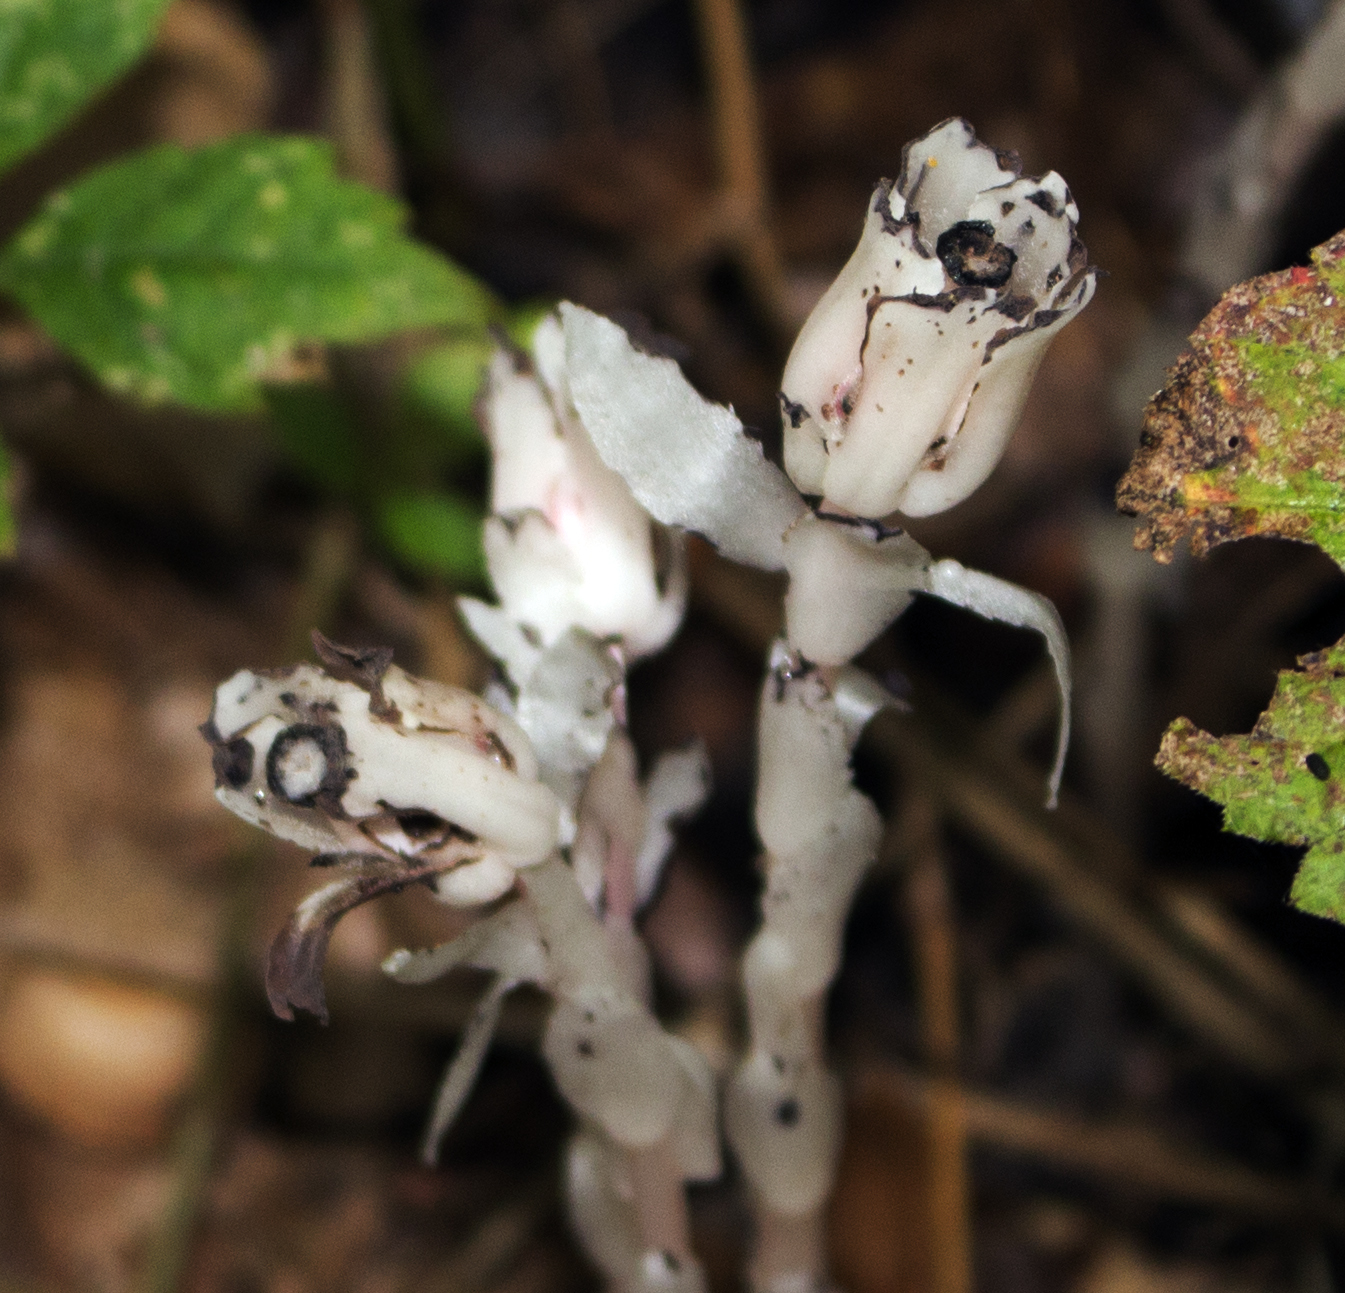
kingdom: Plantae
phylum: Tracheophyta
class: Magnoliopsida
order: Ericales
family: Ericaceae
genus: Monotropa
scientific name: Monotropa uniflora
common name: Convulsion root
